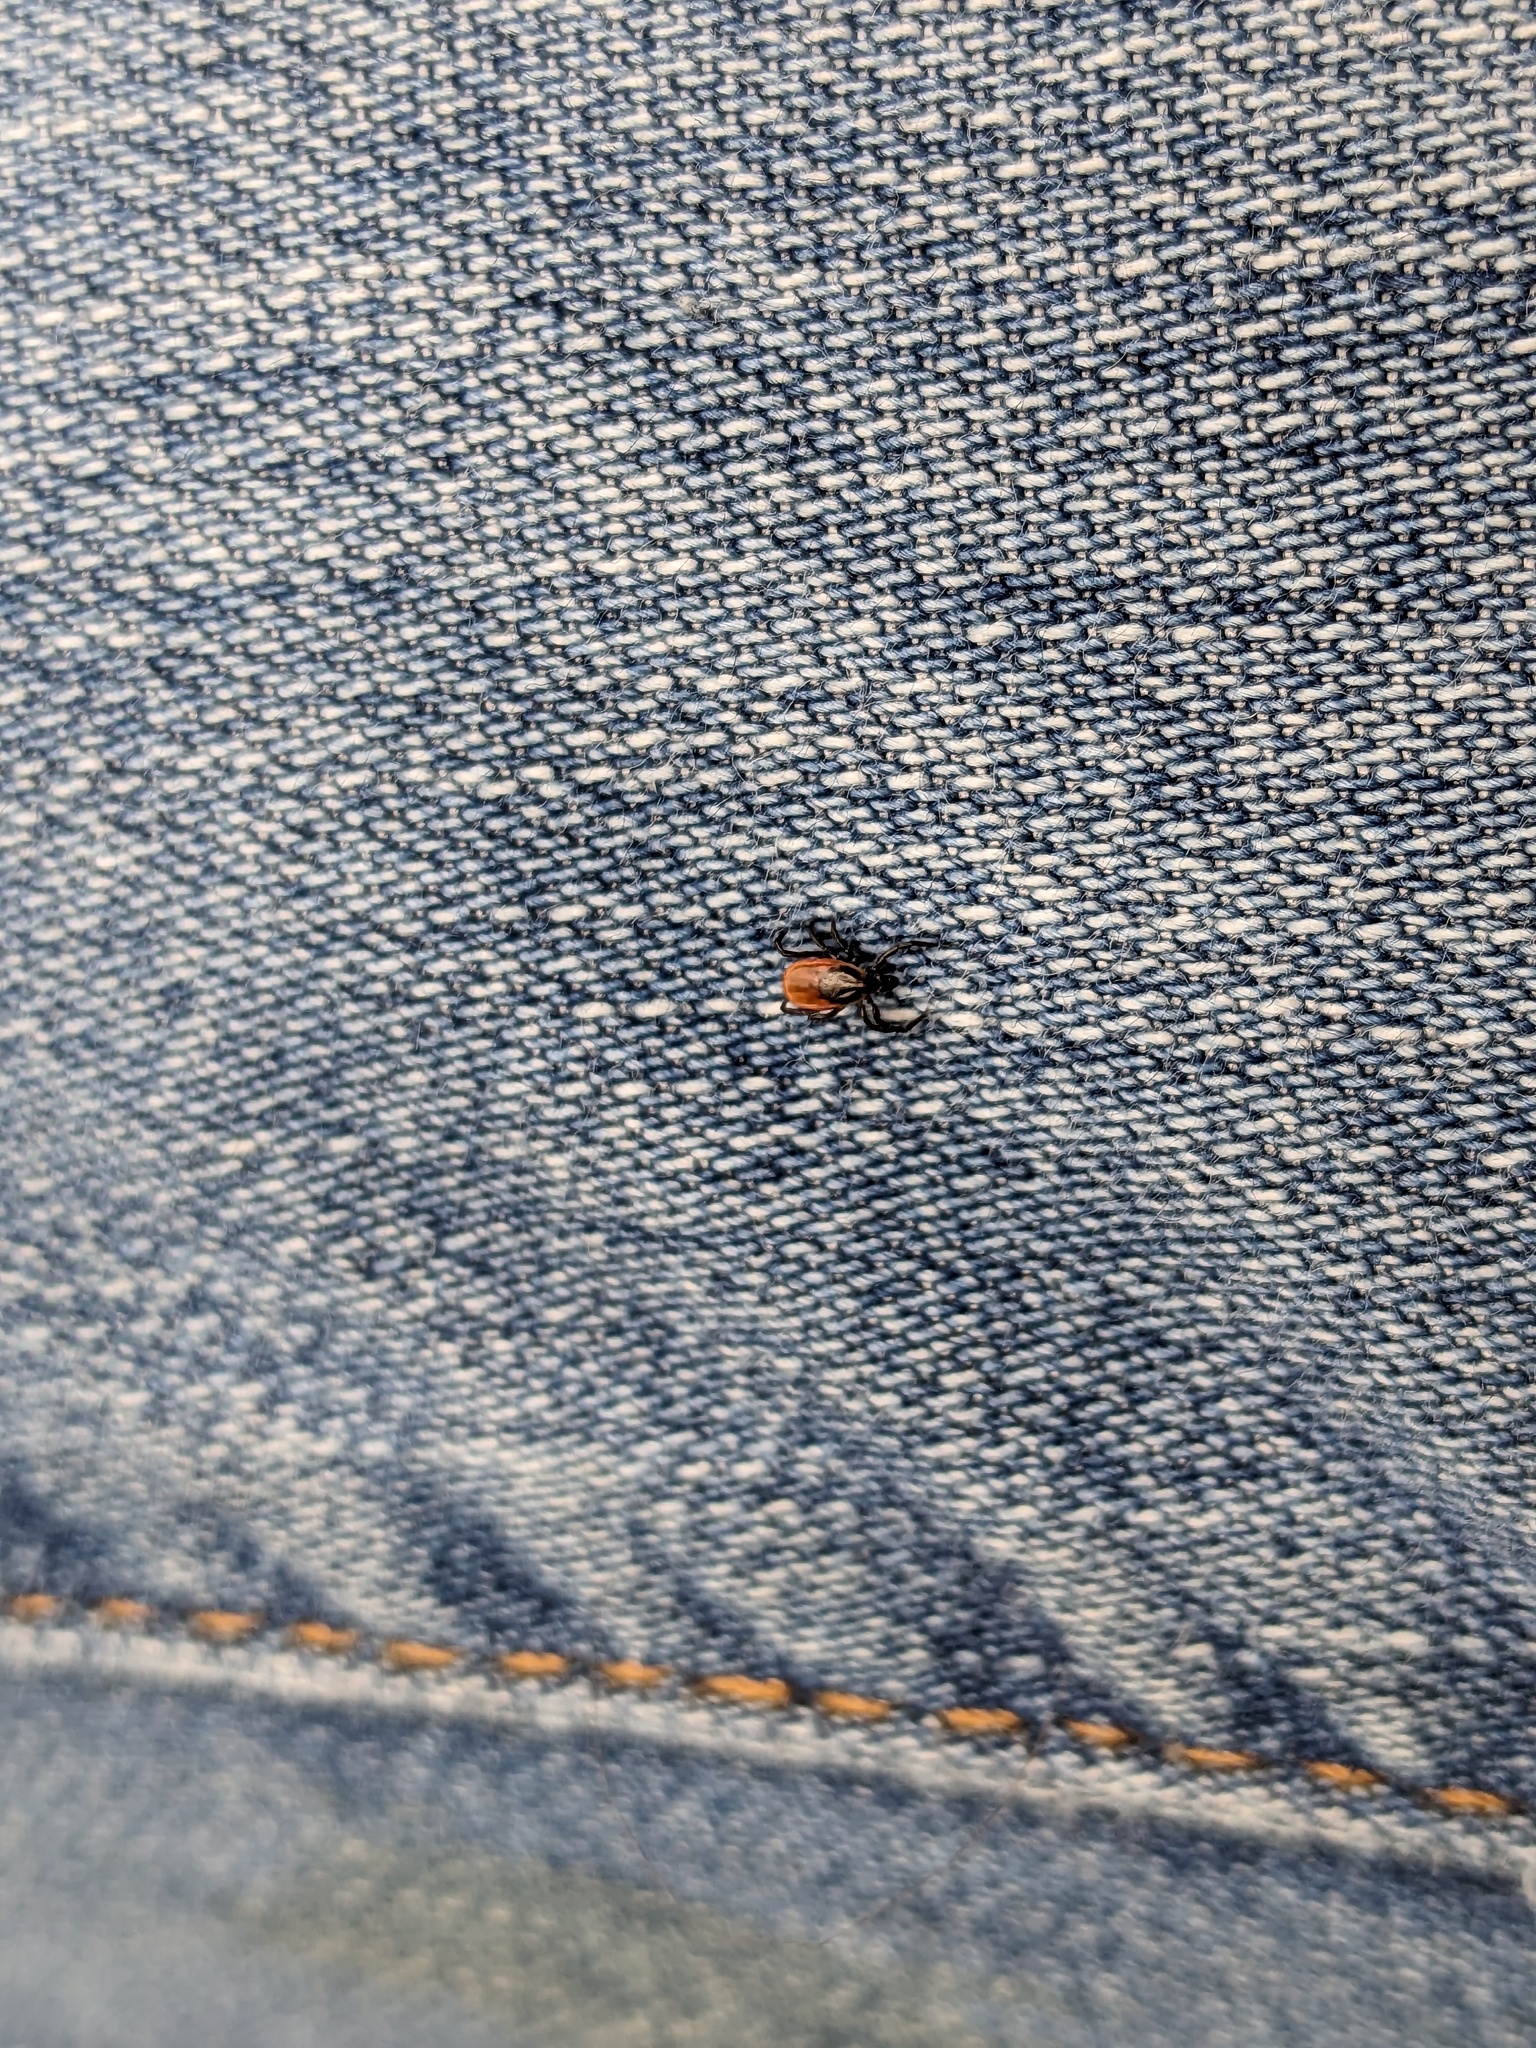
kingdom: Animalia
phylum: Arthropoda
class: Arachnida
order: Ixodida
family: Ixodidae
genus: Ixodes
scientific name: Ixodes scapularis
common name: Black legged tick
